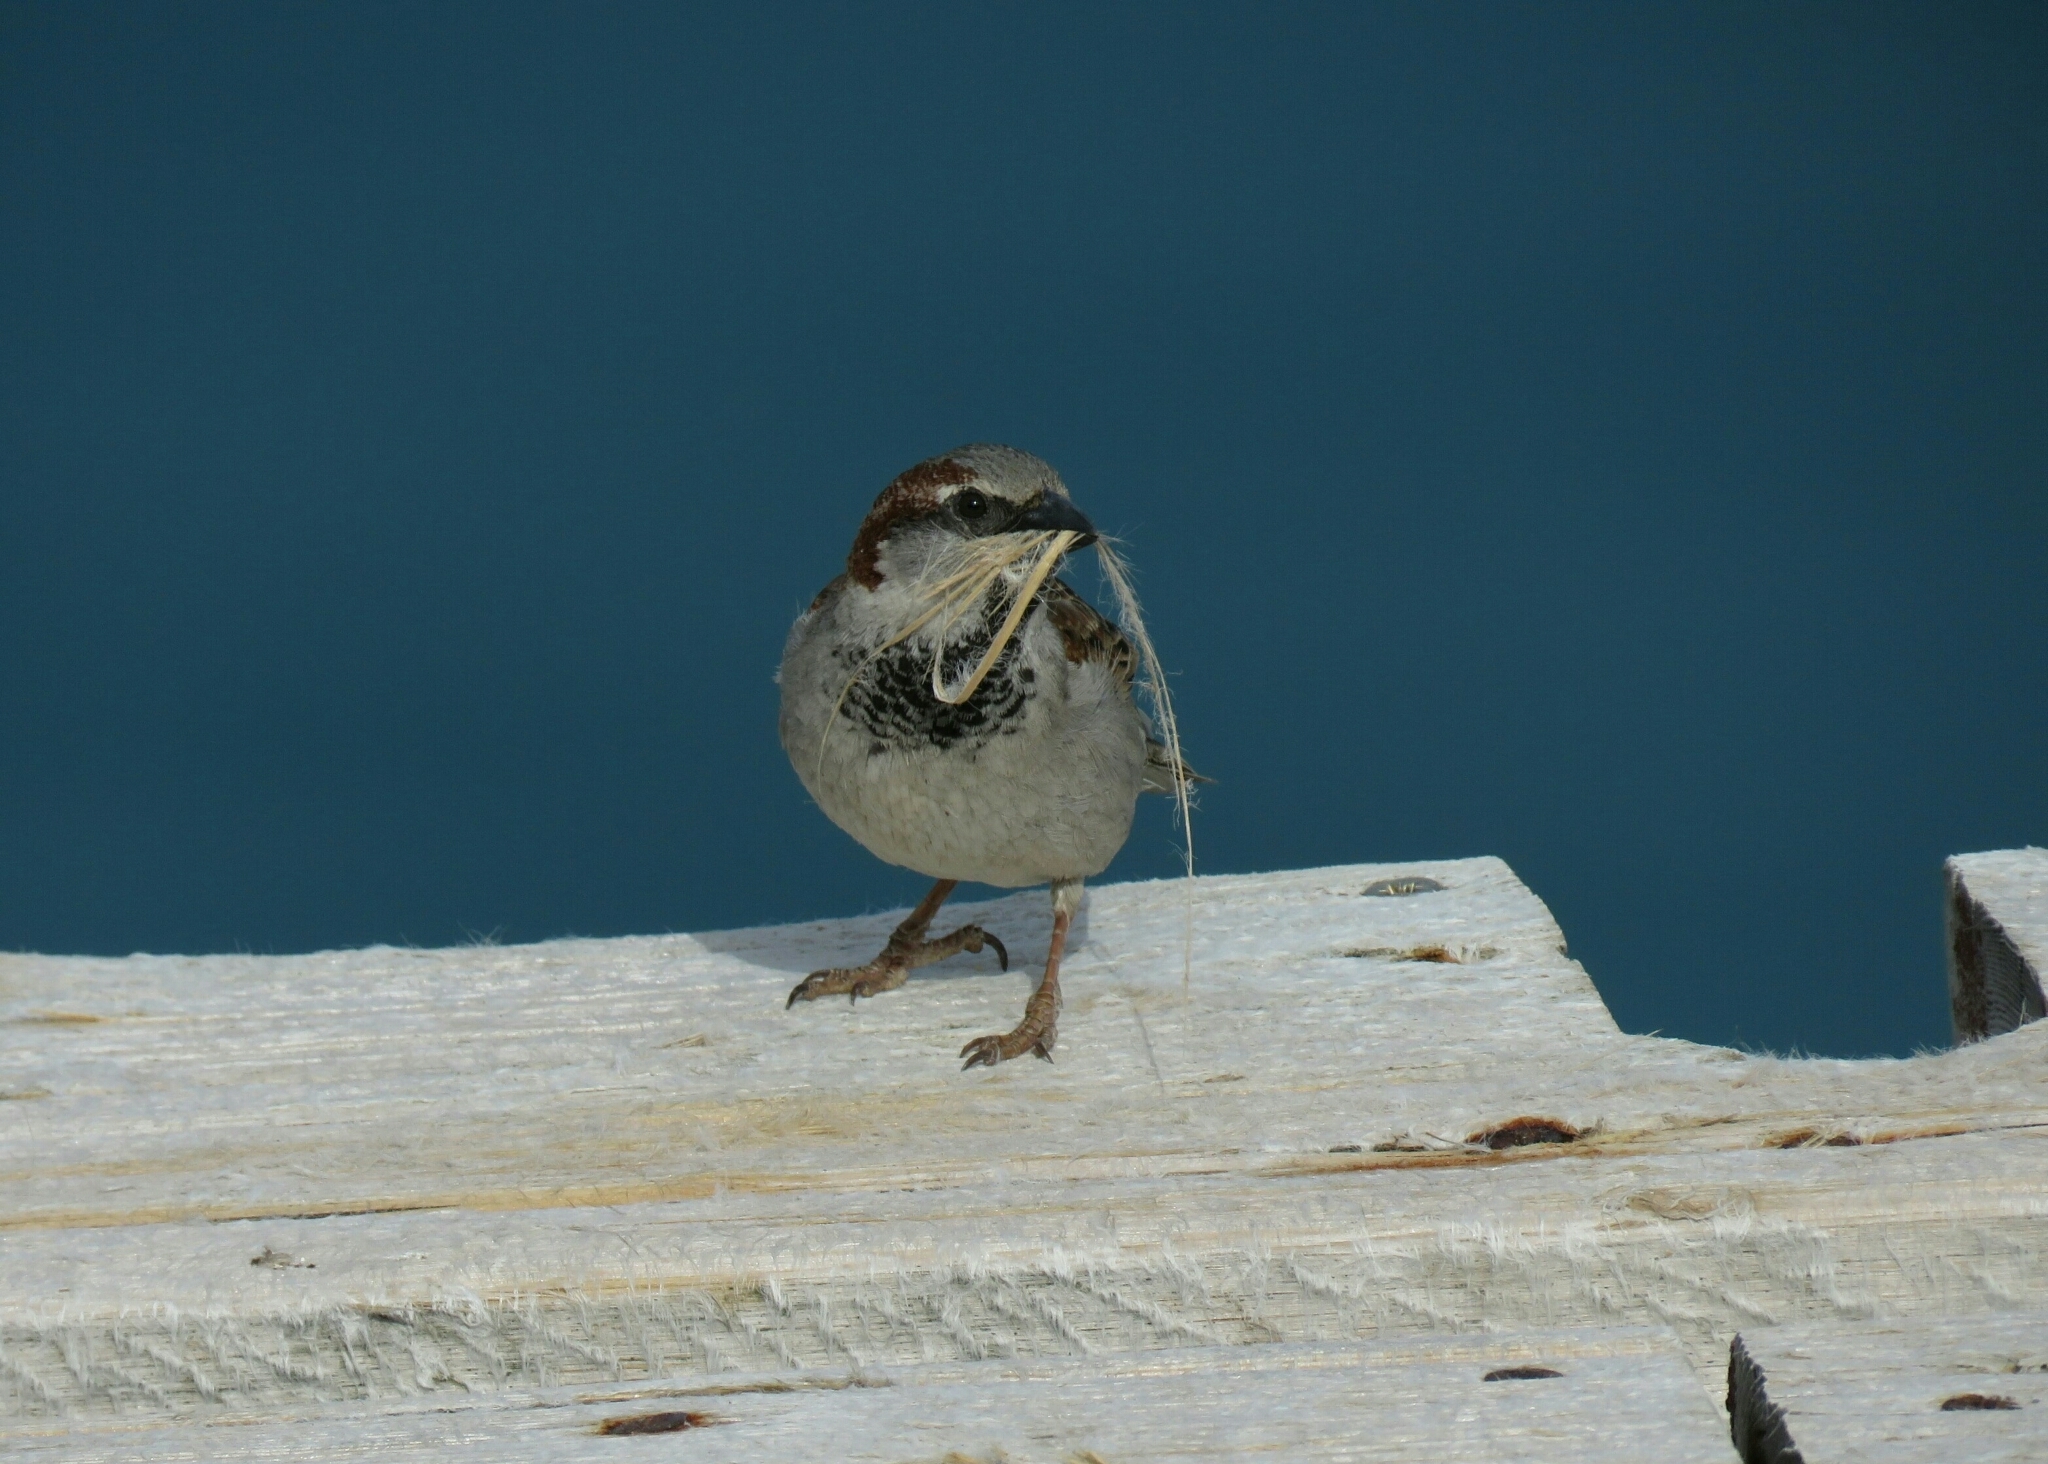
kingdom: Animalia
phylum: Chordata
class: Aves
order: Passeriformes
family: Passeridae
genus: Passer
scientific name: Passer domesticus
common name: House sparrow
